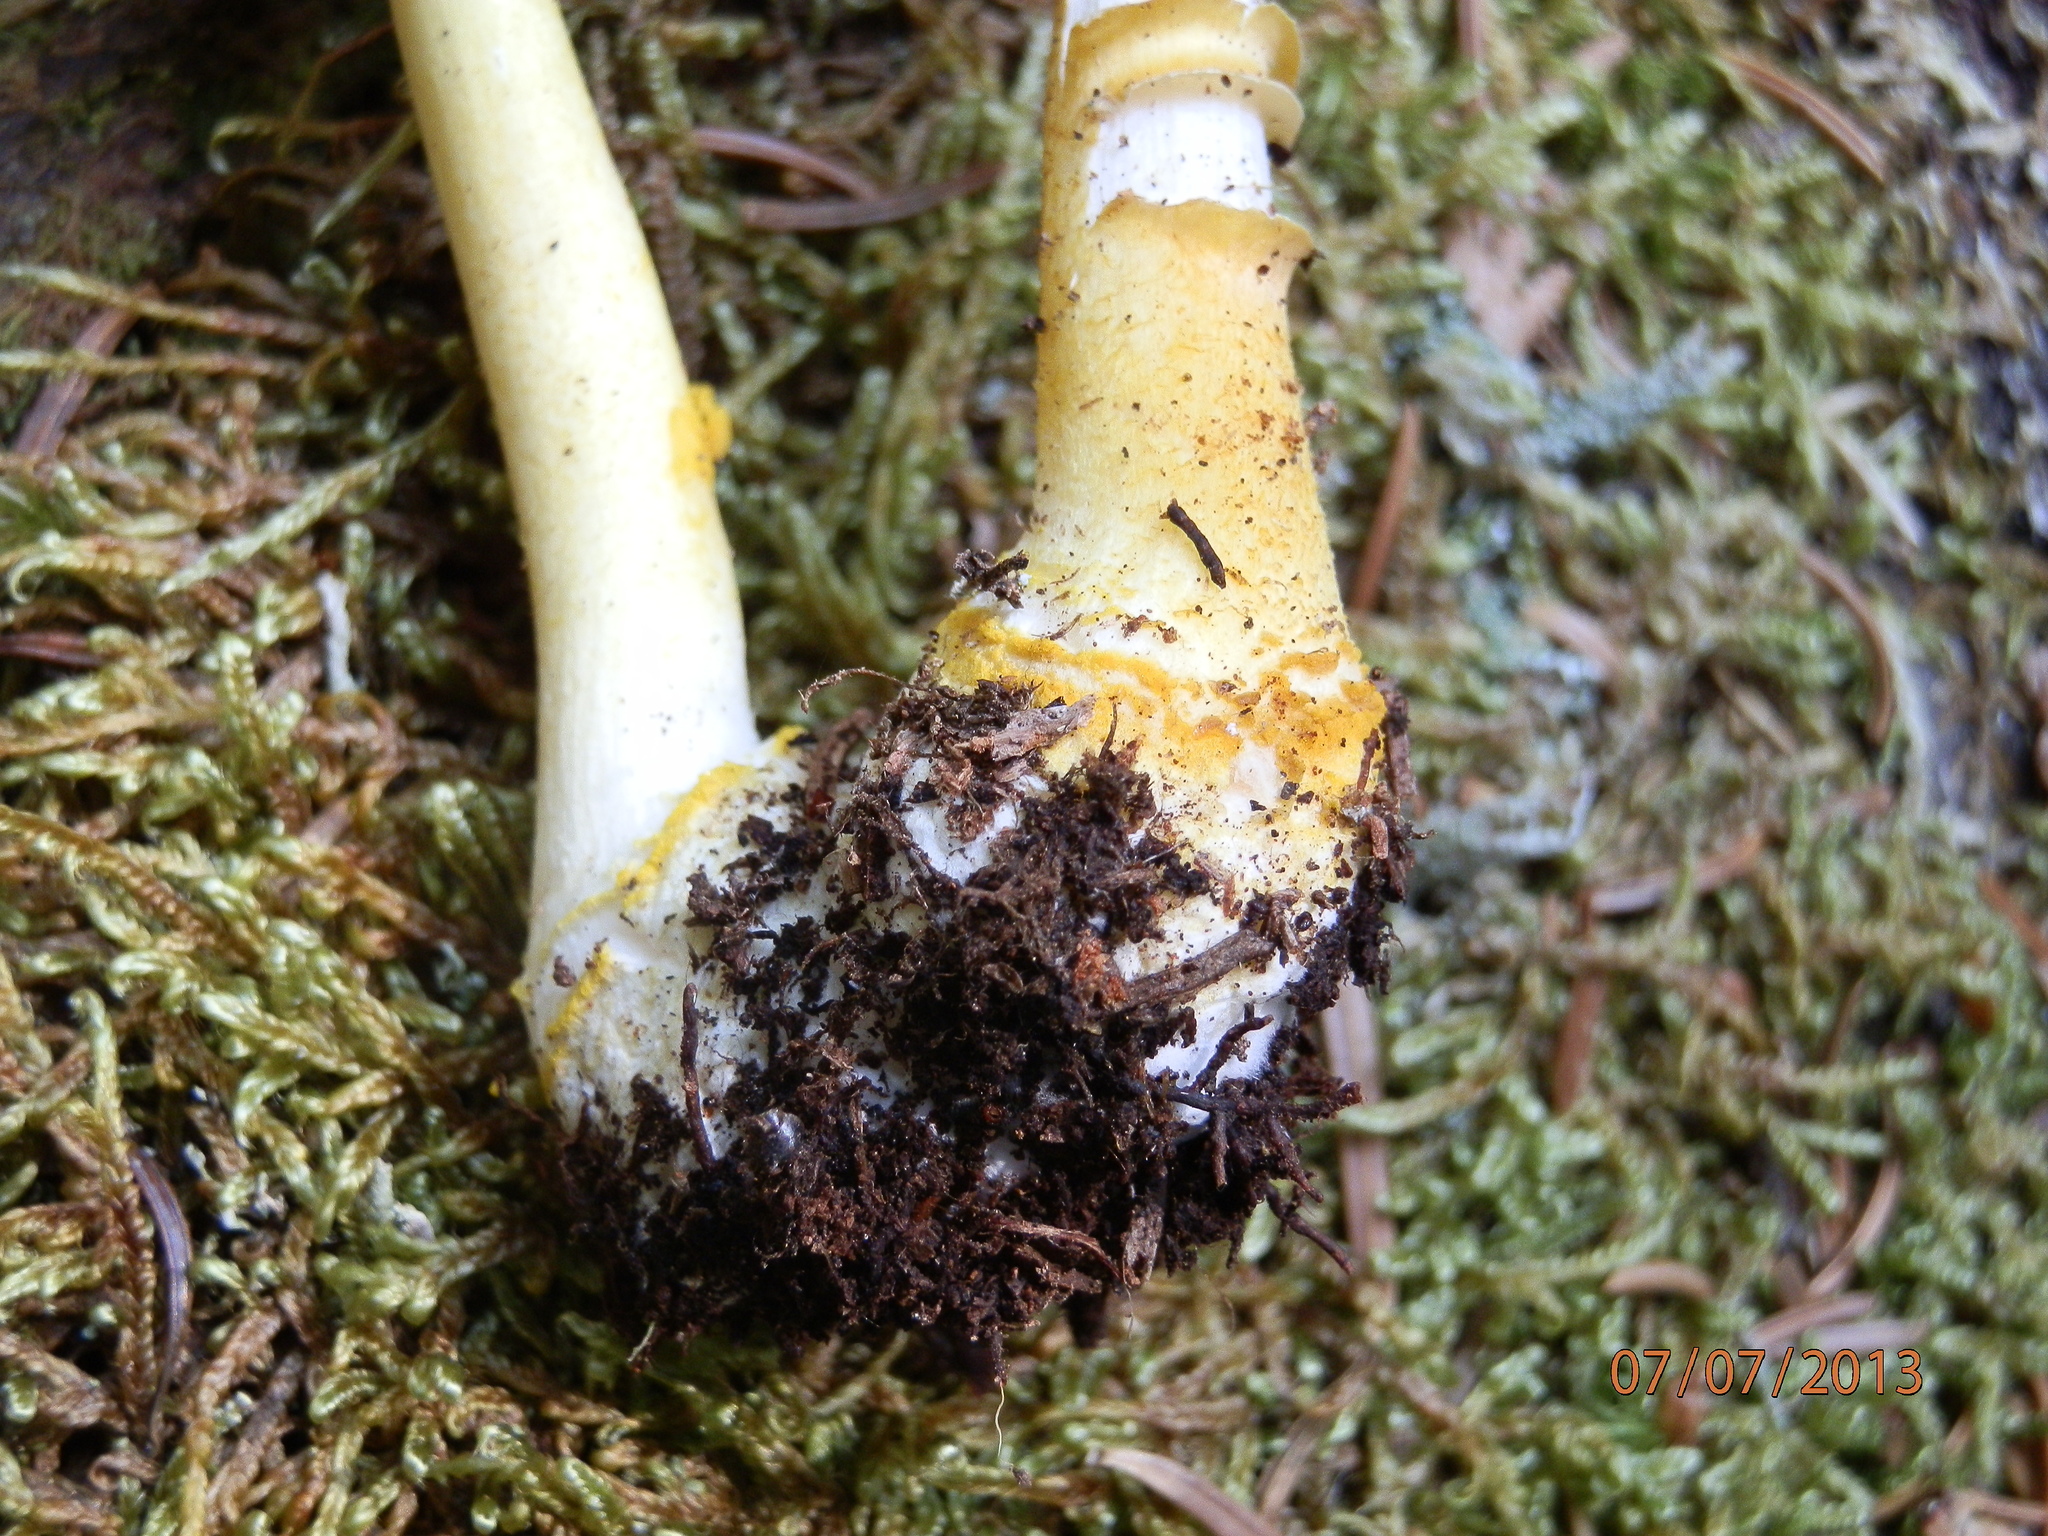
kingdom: Fungi
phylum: Basidiomycota
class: Agaricomycetes
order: Agaricales
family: Amanitaceae
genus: Amanita
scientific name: Amanita flavoconia
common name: Yellow patches
